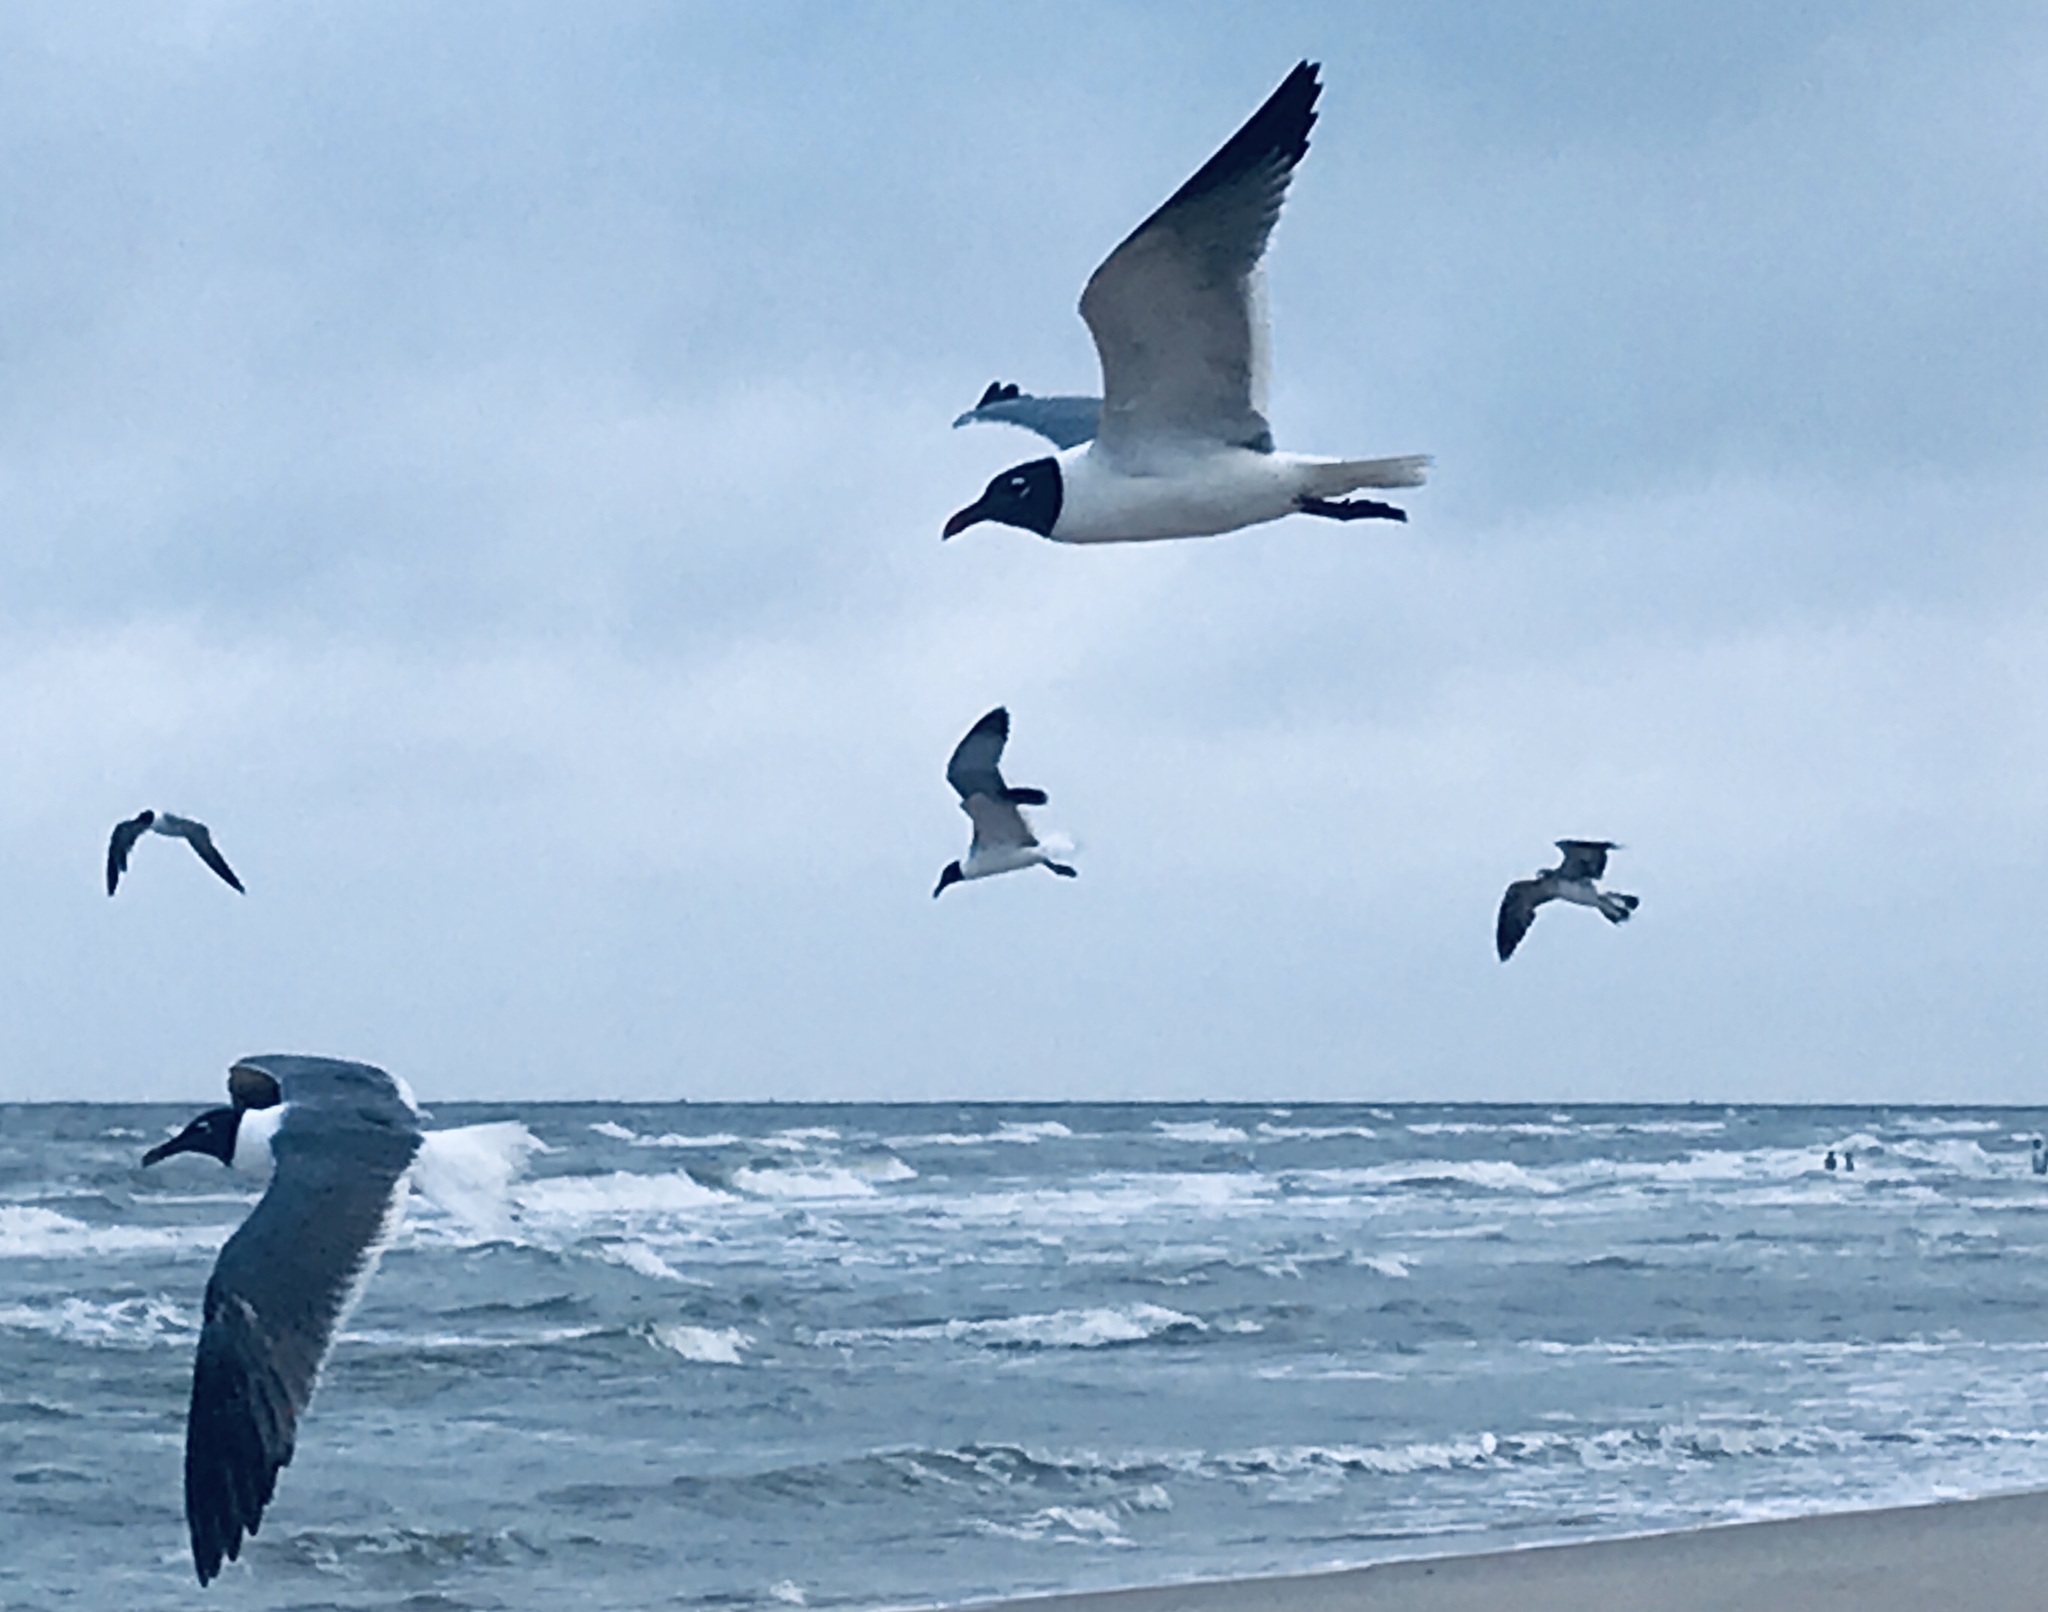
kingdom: Animalia
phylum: Chordata
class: Aves
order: Charadriiformes
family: Laridae
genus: Leucophaeus
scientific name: Leucophaeus atricilla
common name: Laughing gull
